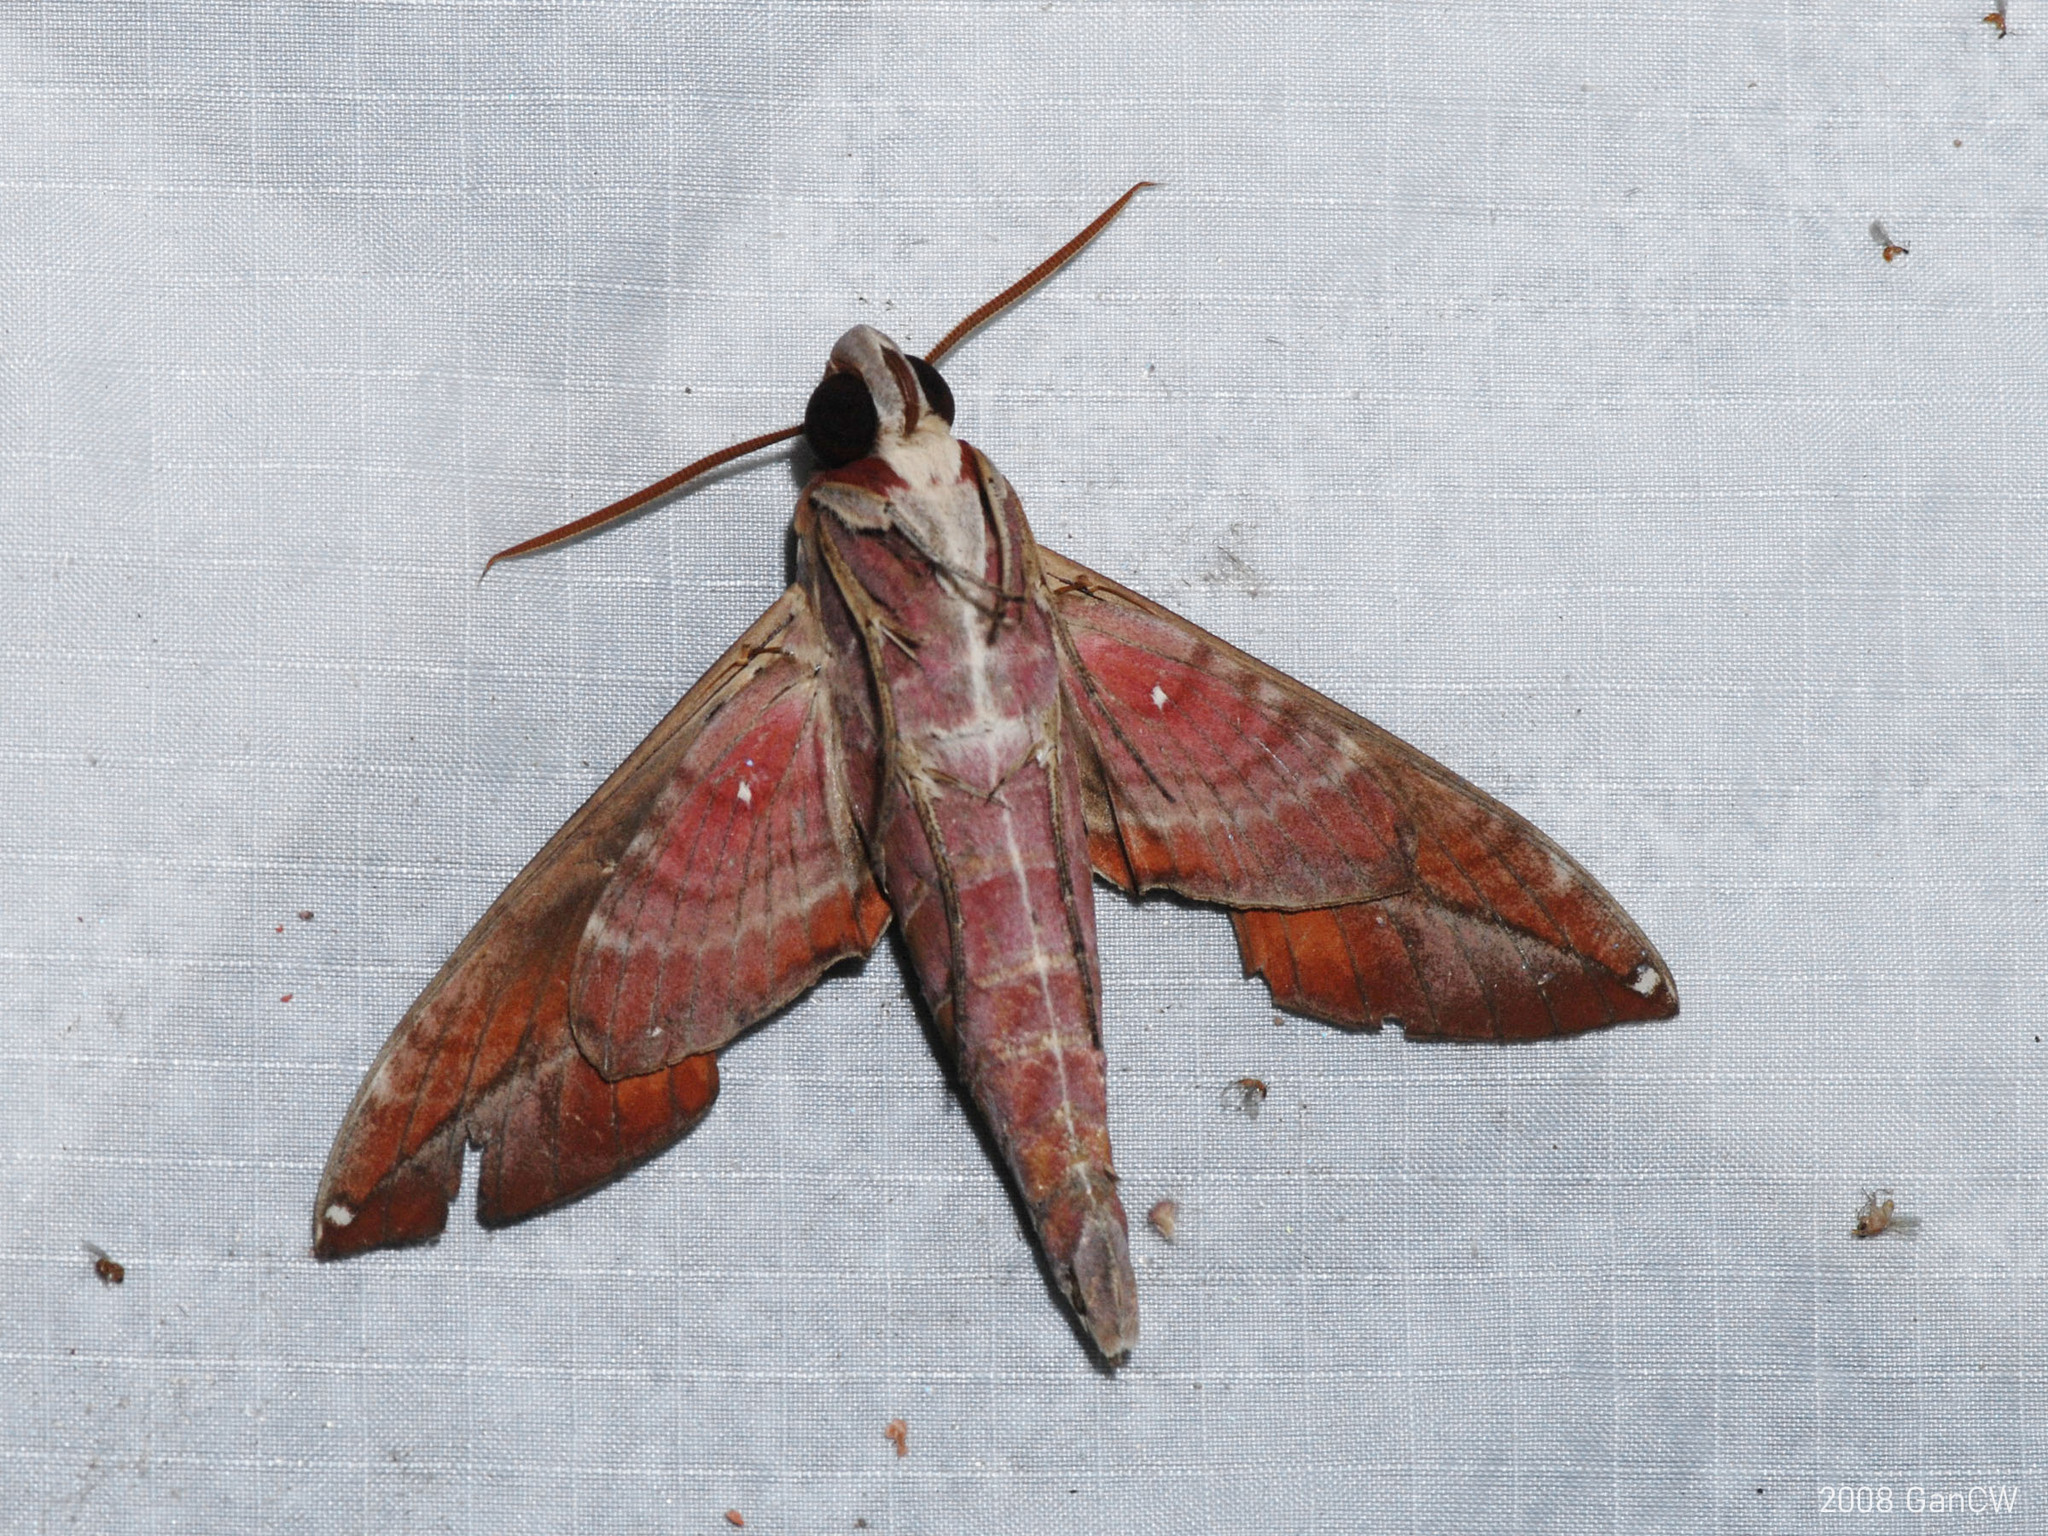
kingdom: Animalia
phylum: Arthropoda
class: Insecta
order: Lepidoptera
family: Sphingidae
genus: Daphnis
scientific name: Daphnis hypothous
